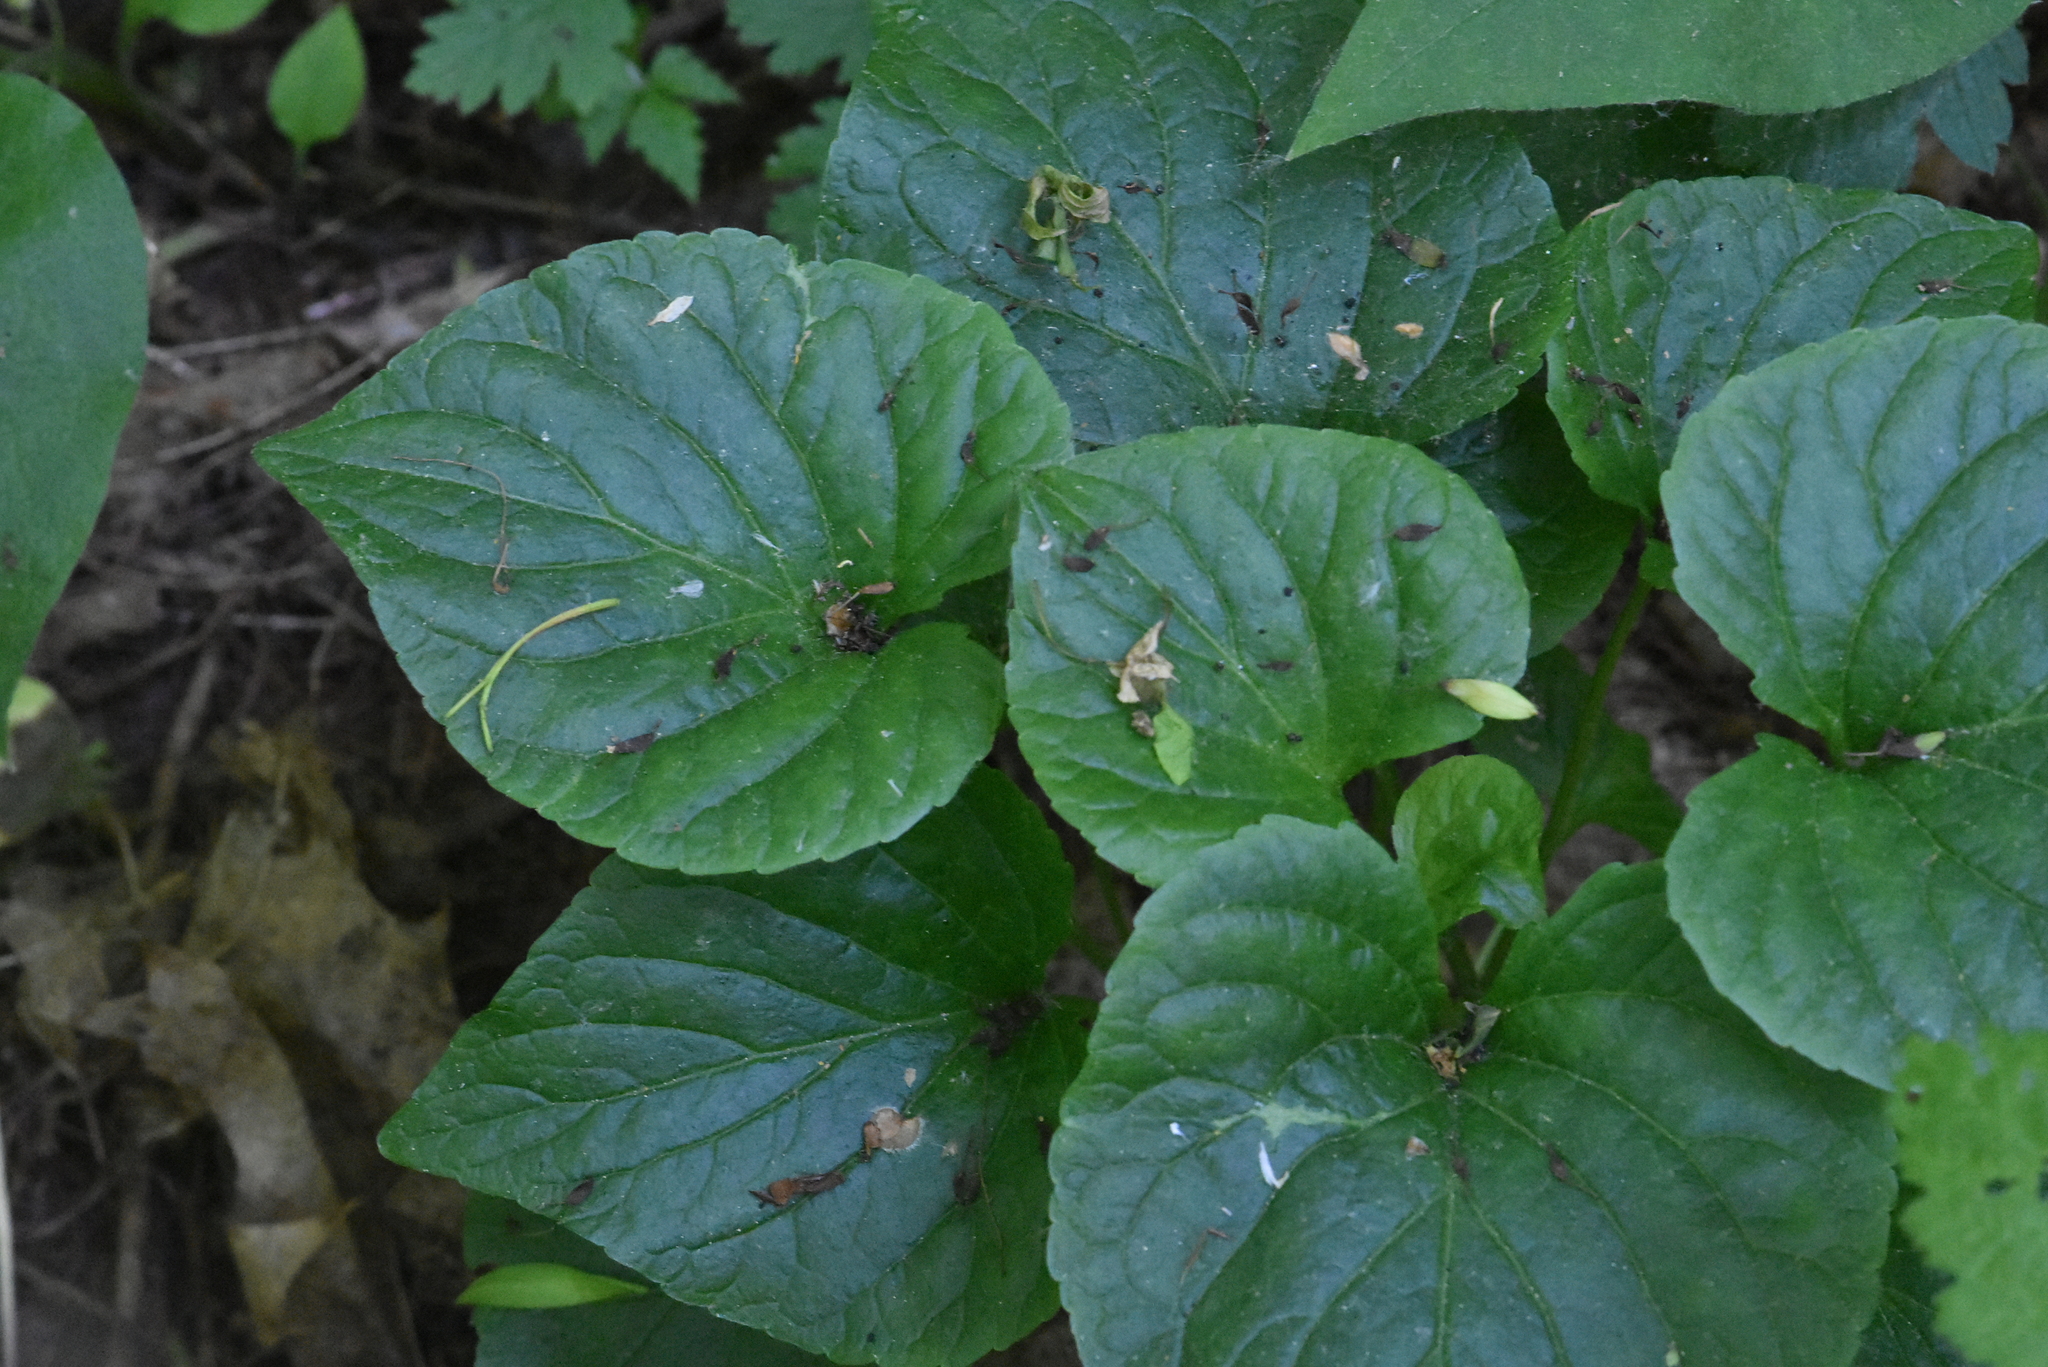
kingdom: Plantae
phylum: Tracheophyta
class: Magnoliopsida
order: Malpighiales
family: Violaceae
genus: Viola
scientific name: Viola mirabilis
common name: Wonder violet
